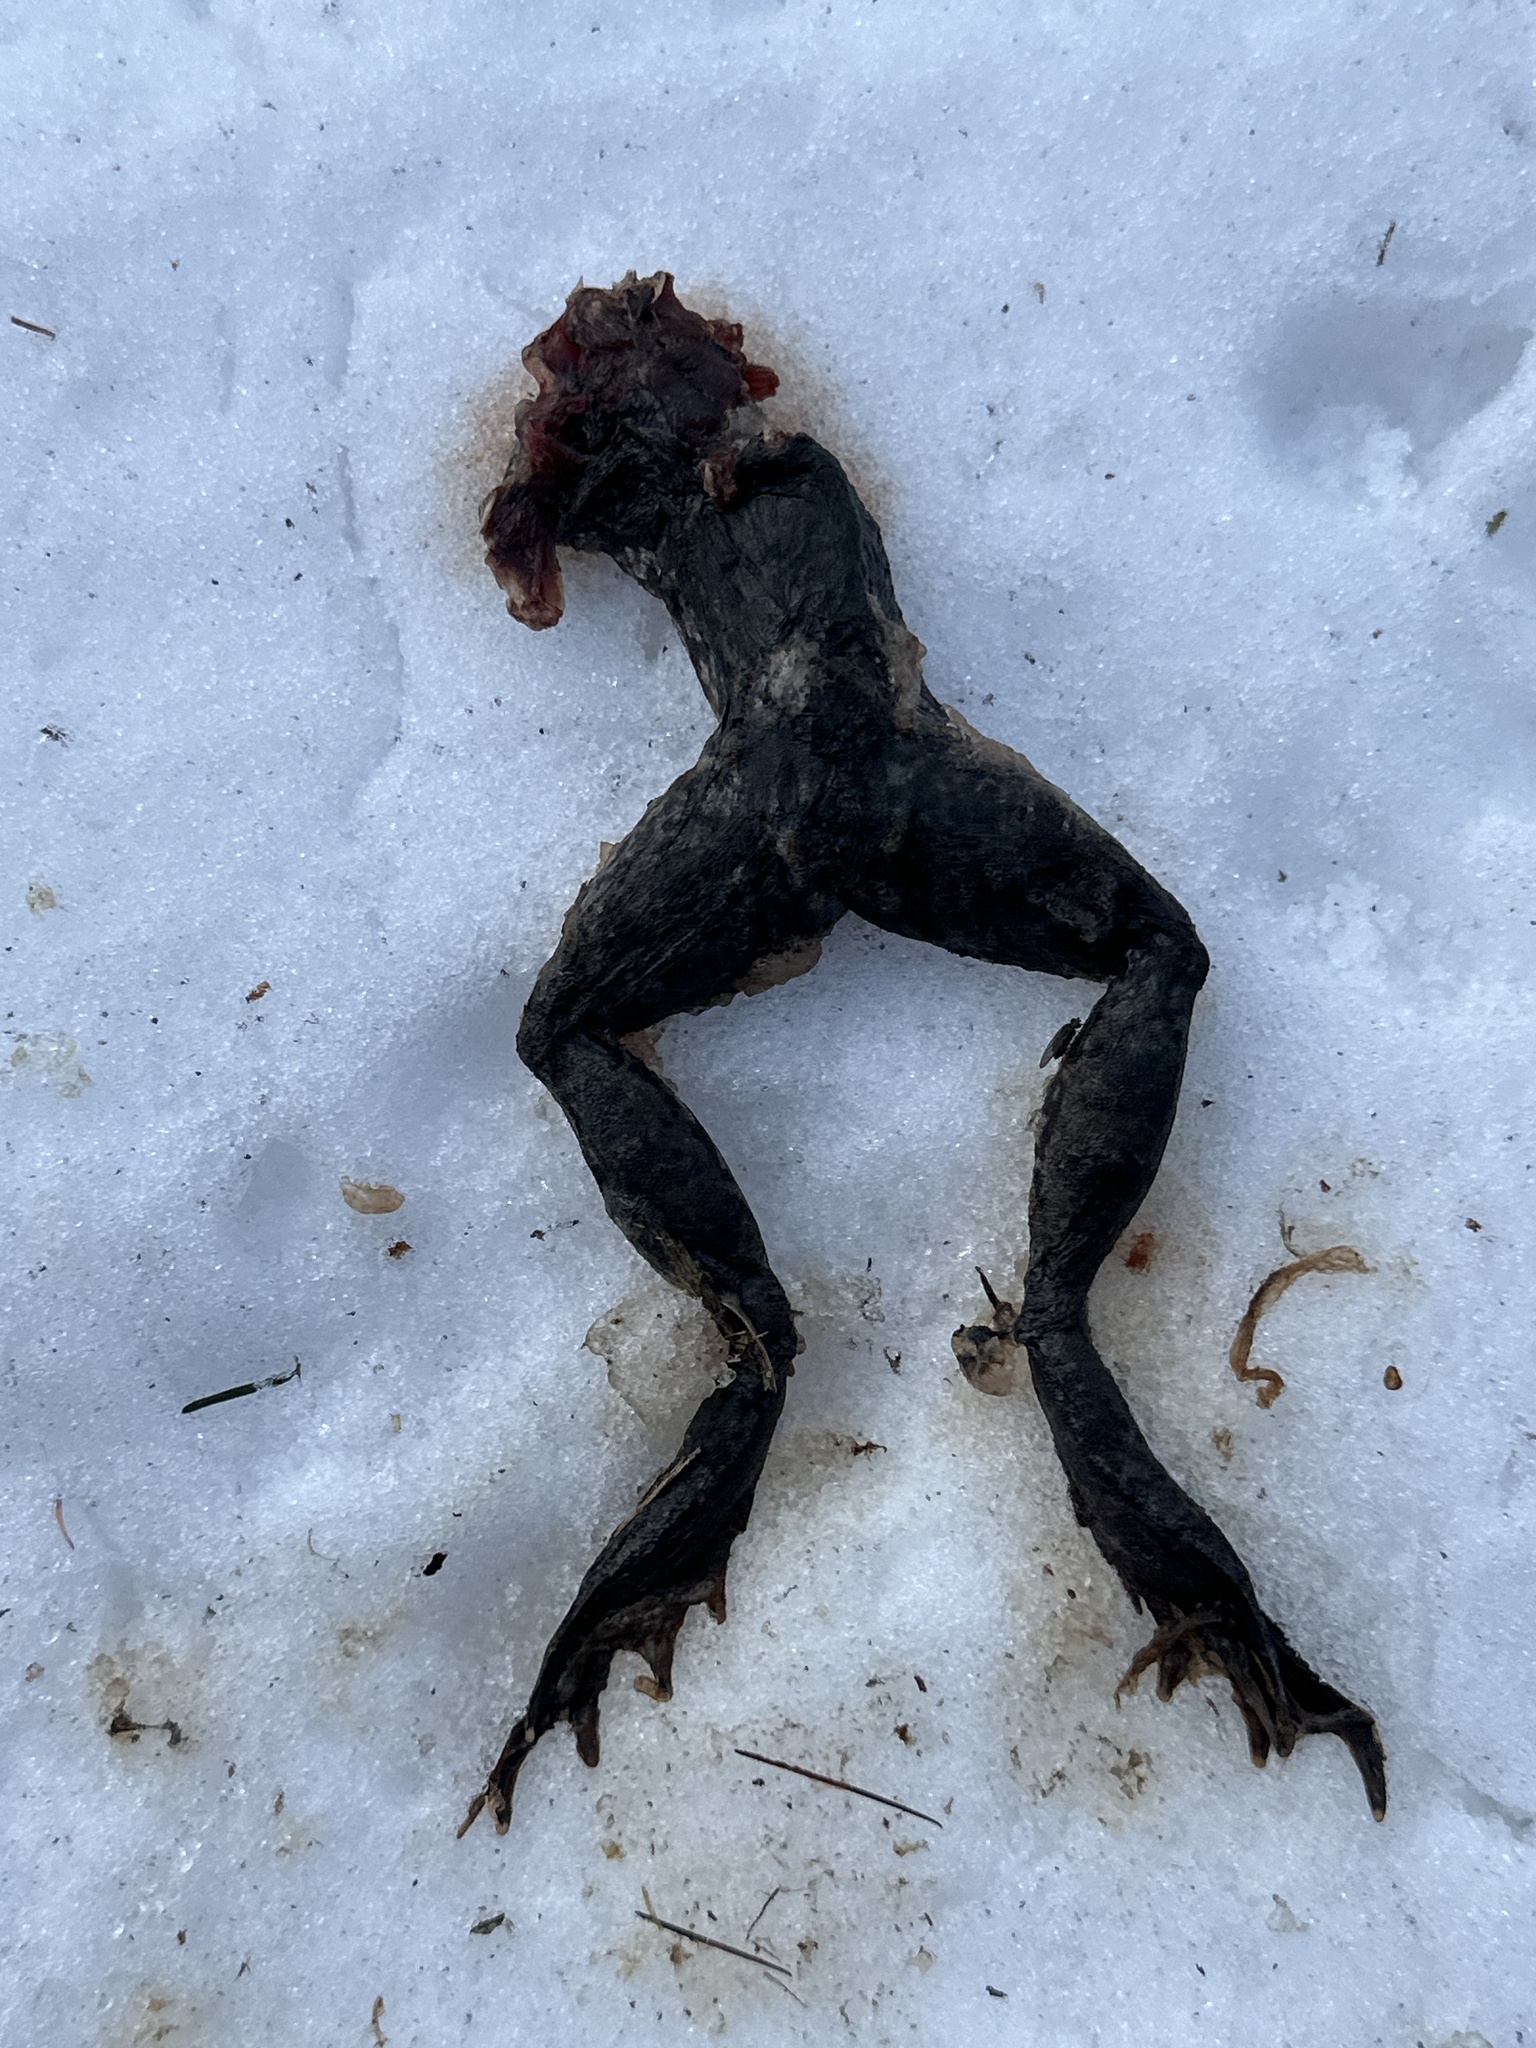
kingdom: Animalia
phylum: Chordata
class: Amphibia
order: Anura
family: Ranidae
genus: Rana
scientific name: Rana temporaria
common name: Common frog
